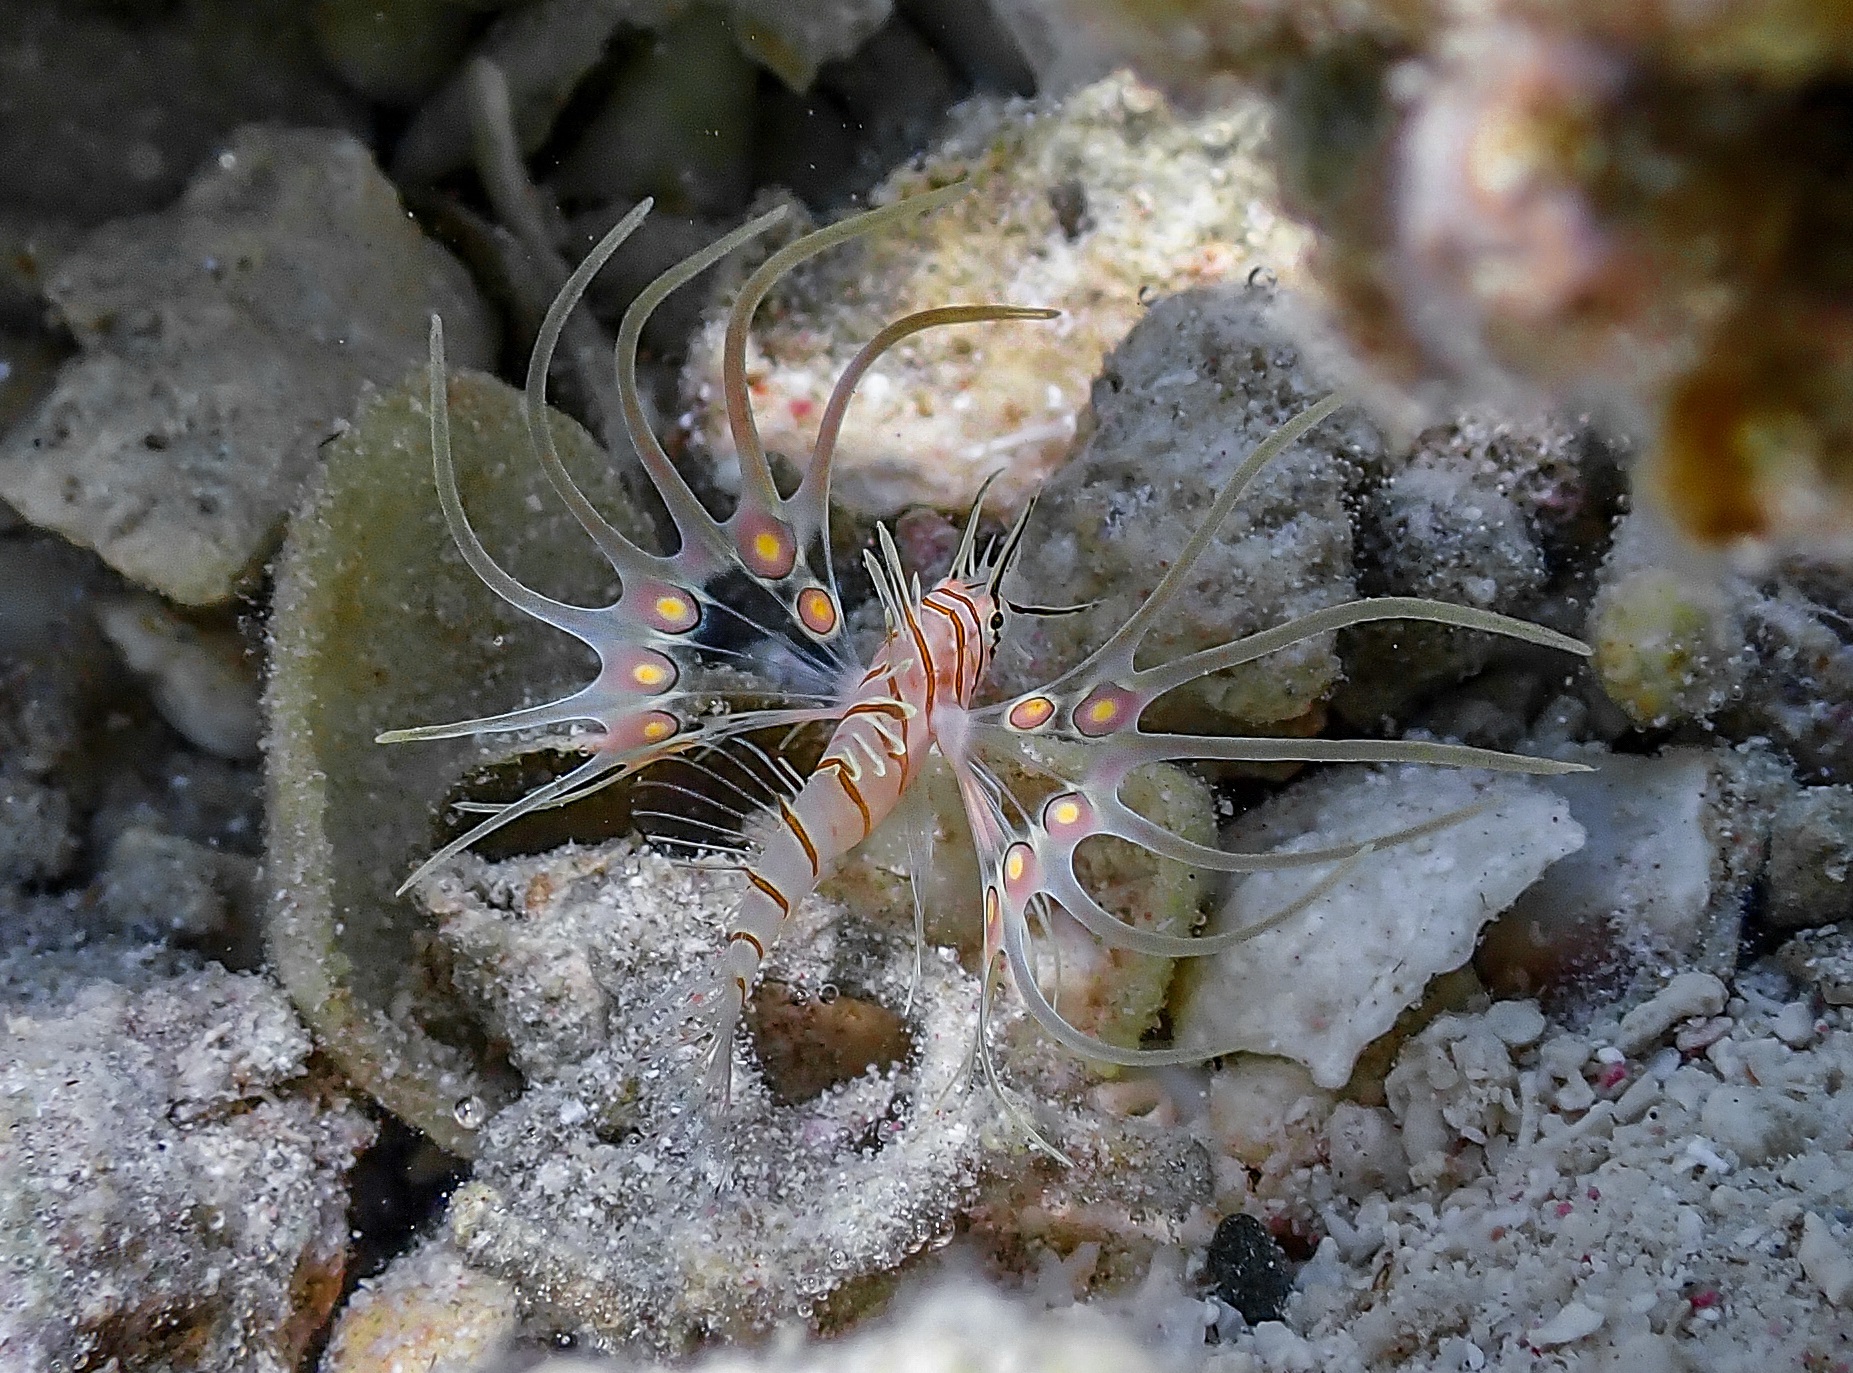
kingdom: Animalia
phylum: Chordata
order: Scorpaeniformes
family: Scorpaenidae
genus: Pterois
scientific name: Pterois miles
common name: Devil firefish
